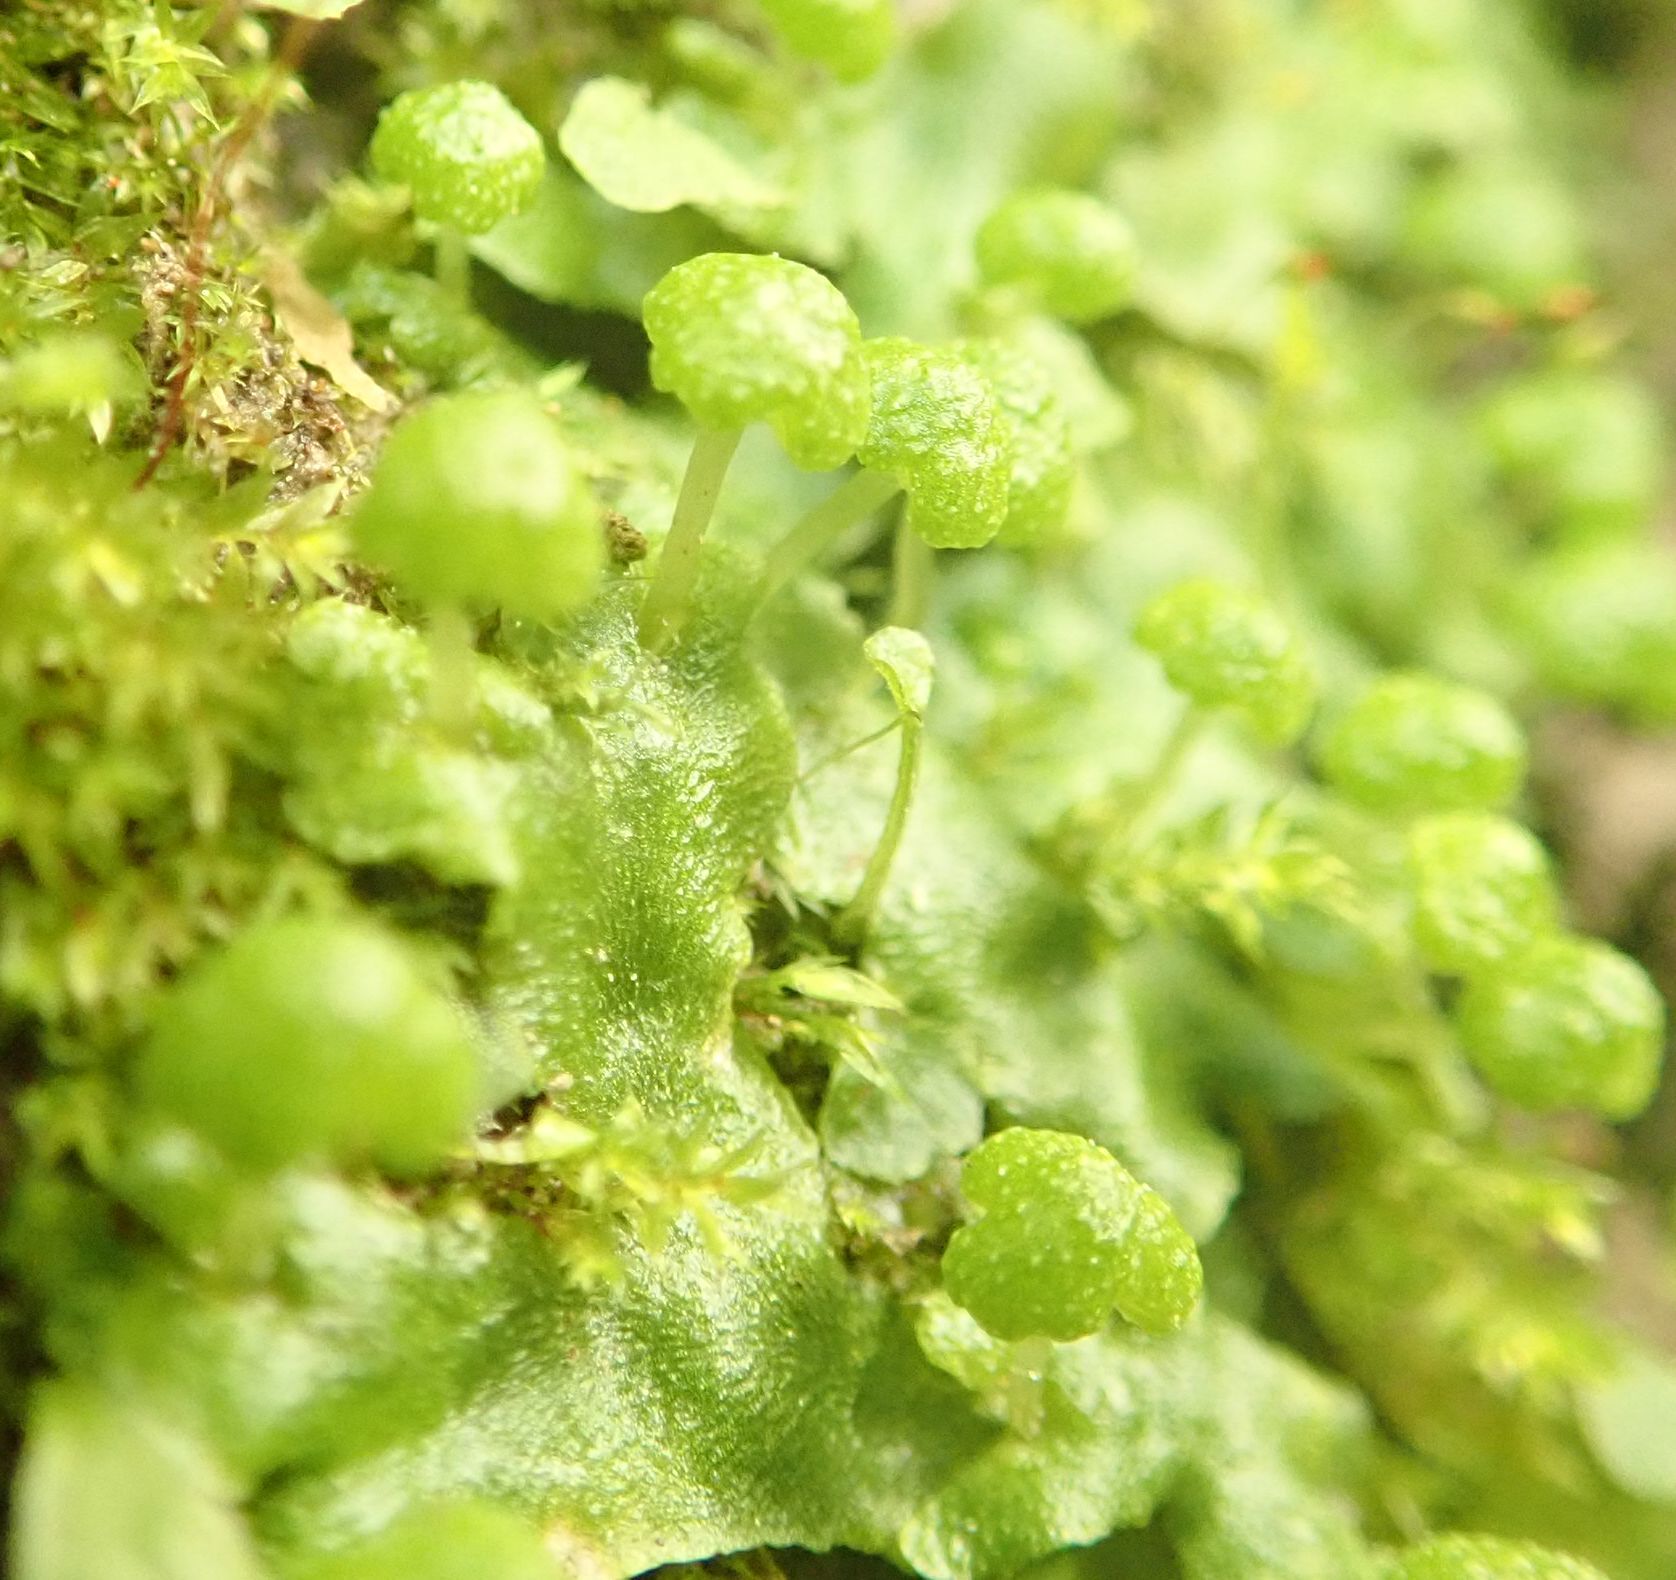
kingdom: Plantae
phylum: Marchantiophyta
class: Marchantiopsida
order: Marchantiales
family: Aytoniaceae
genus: Asterella
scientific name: Asterella tenera
